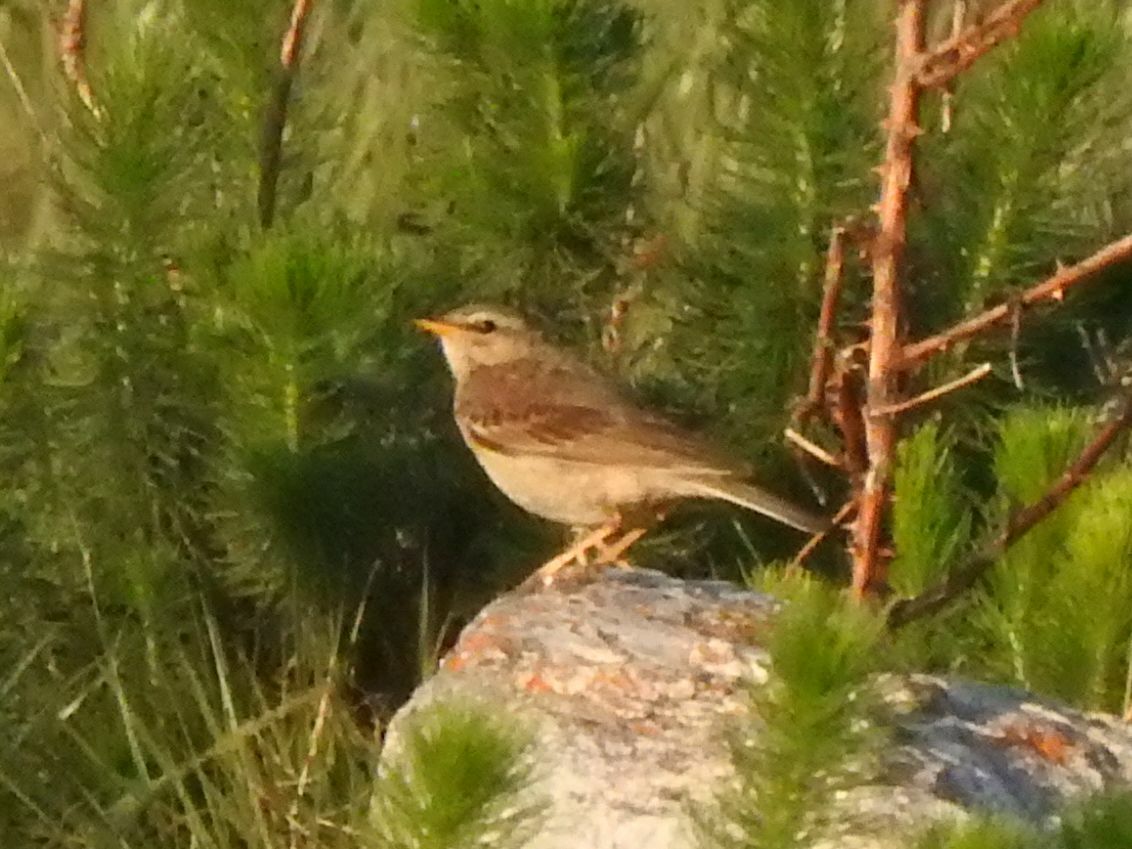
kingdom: Animalia
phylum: Chordata
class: Aves
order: Passeriformes
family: Motacillidae
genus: Anthus
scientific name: Anthus leucophrys
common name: Plain-backed pipit
